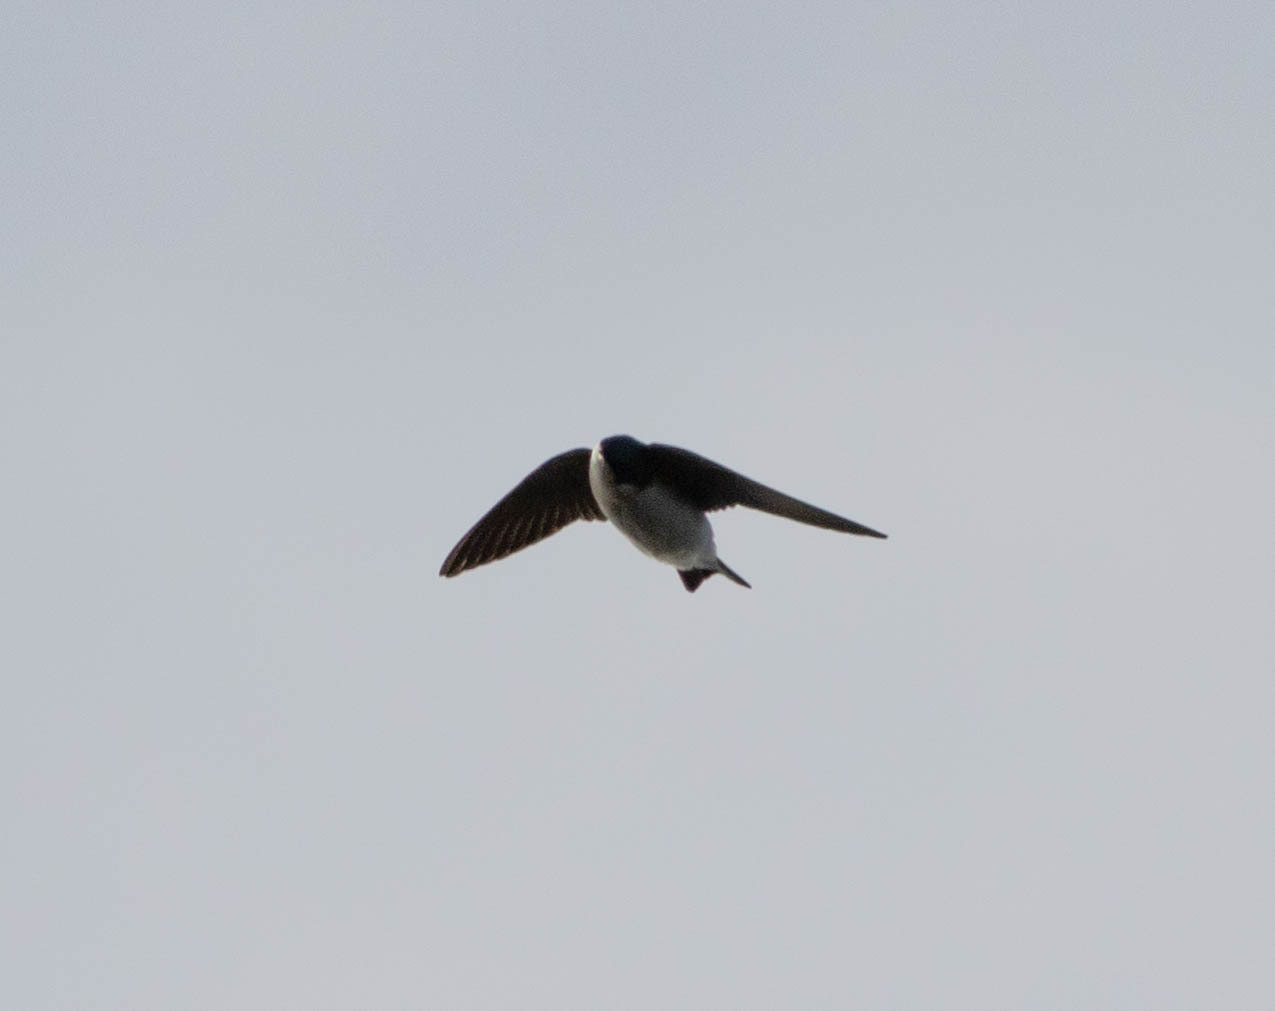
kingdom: Animalia
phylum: Chordata
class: Aves
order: Passeriformes
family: Hirundinidae
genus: Tachycineta
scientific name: Tachycineta bicolor
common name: Tree swallow
